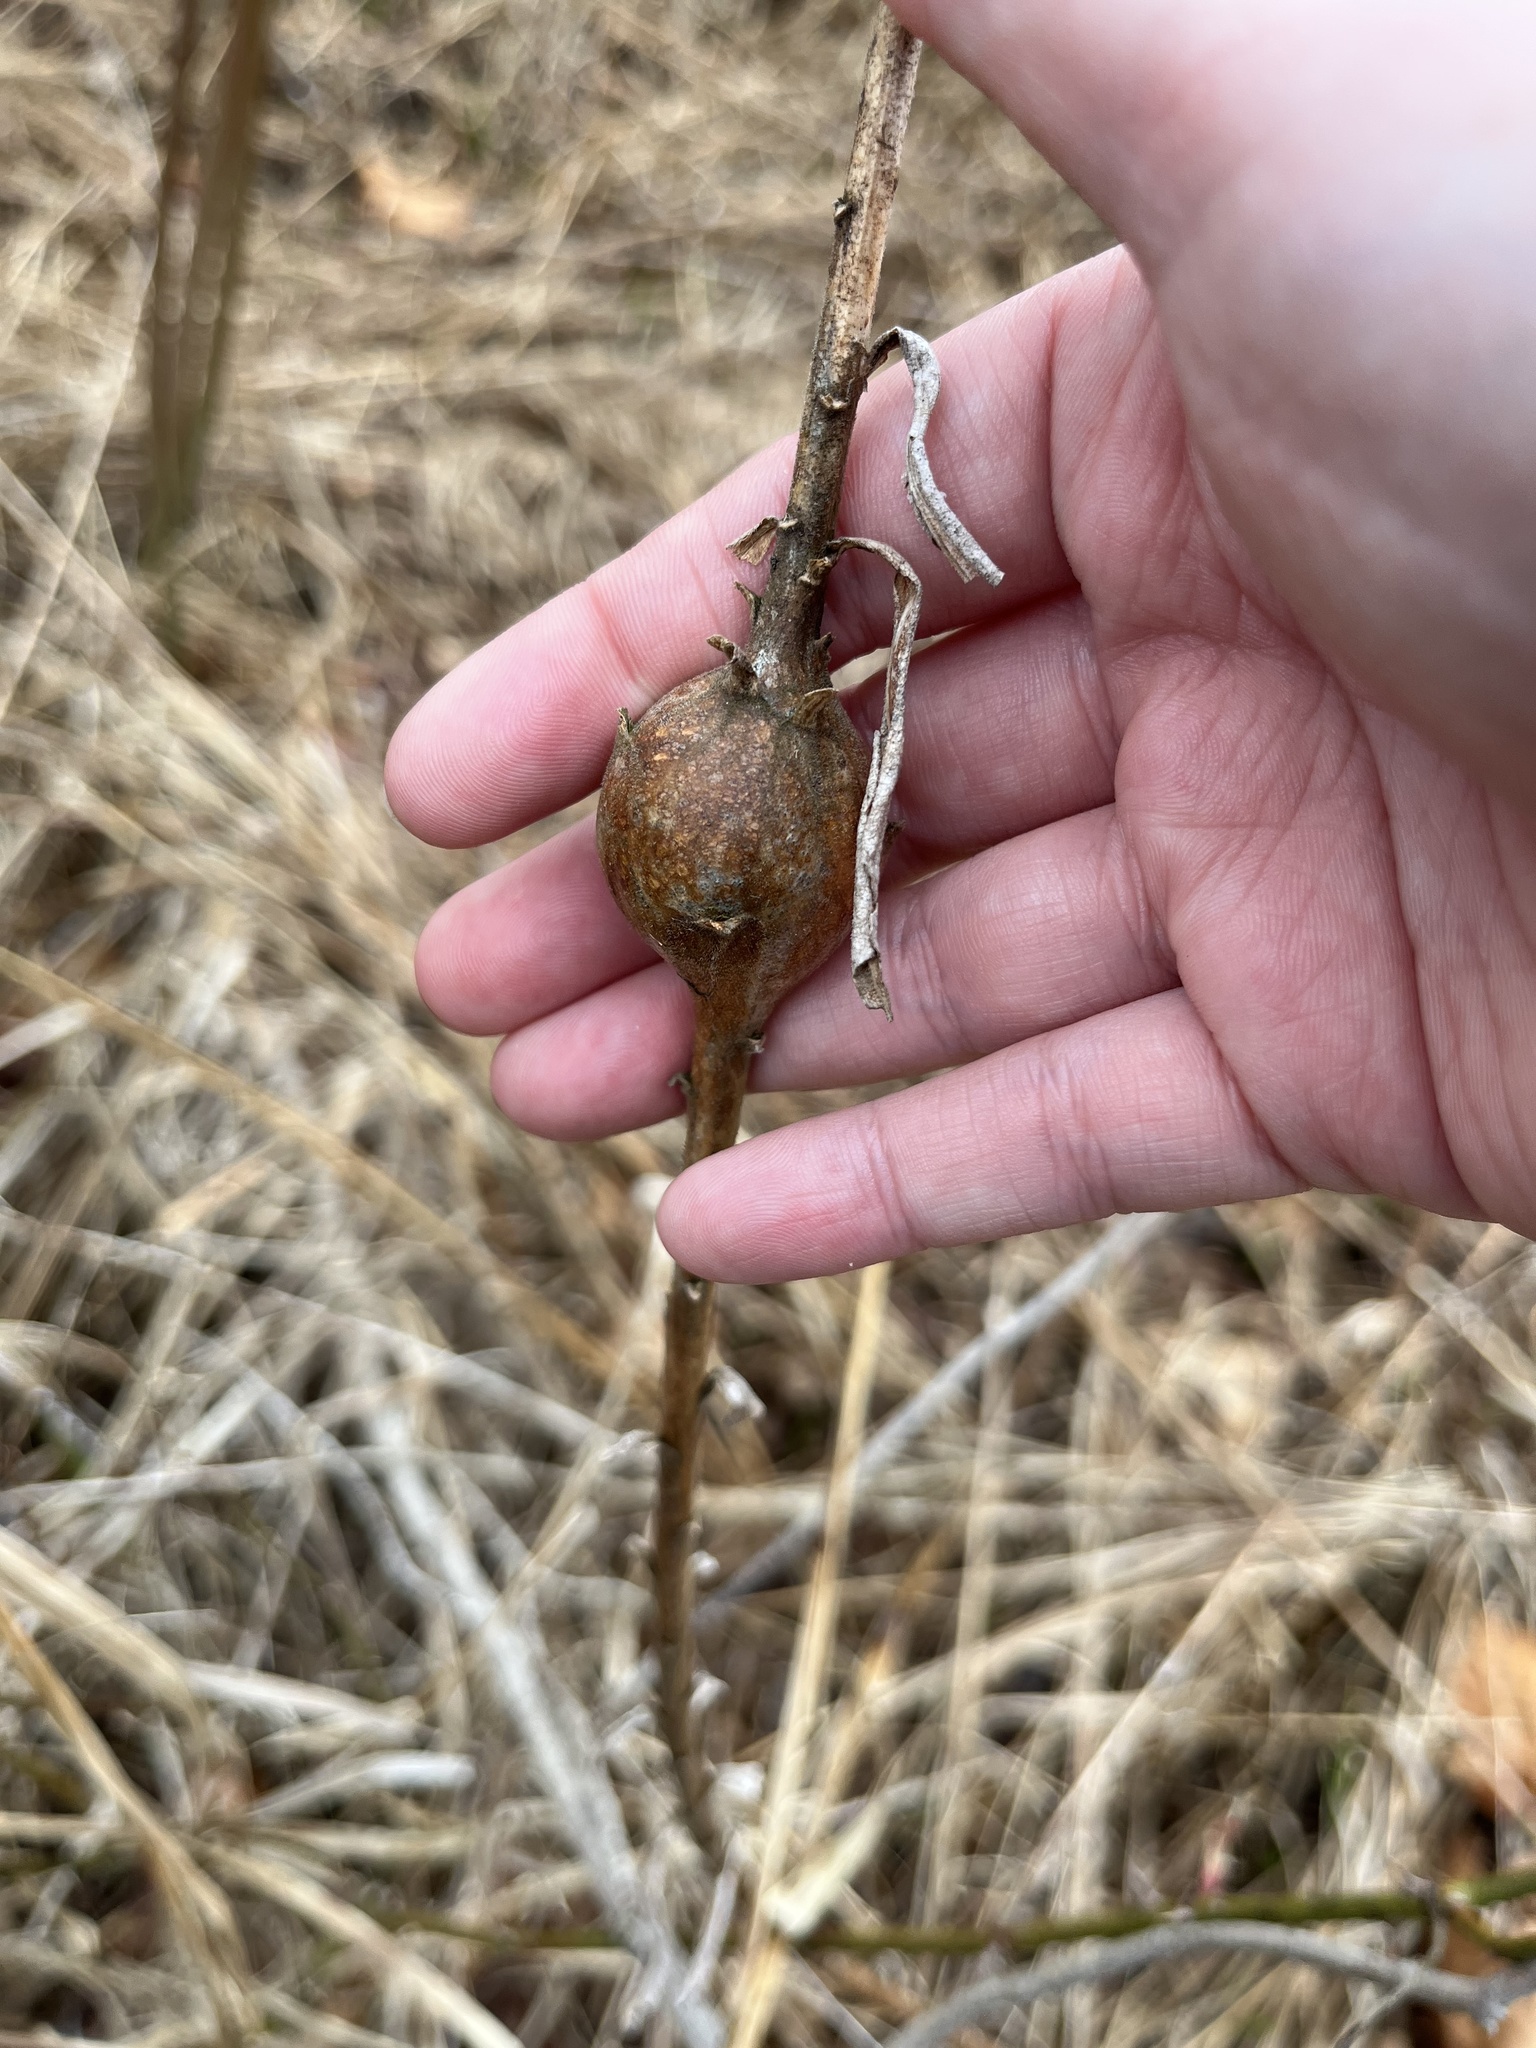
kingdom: Animalia
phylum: Arthropoda
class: Insecta
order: Diptera
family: Tephritidae
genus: Eurosta
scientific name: Eurosta solidaginis
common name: Goldenrod gall fly
